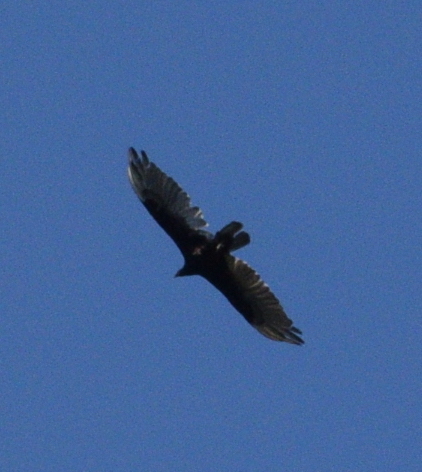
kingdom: Animalia
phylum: Chordata
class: Aves
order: Accipitriformes
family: Cathartidae
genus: Cathartes
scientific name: Cathartes aura
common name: Turkey vulture
